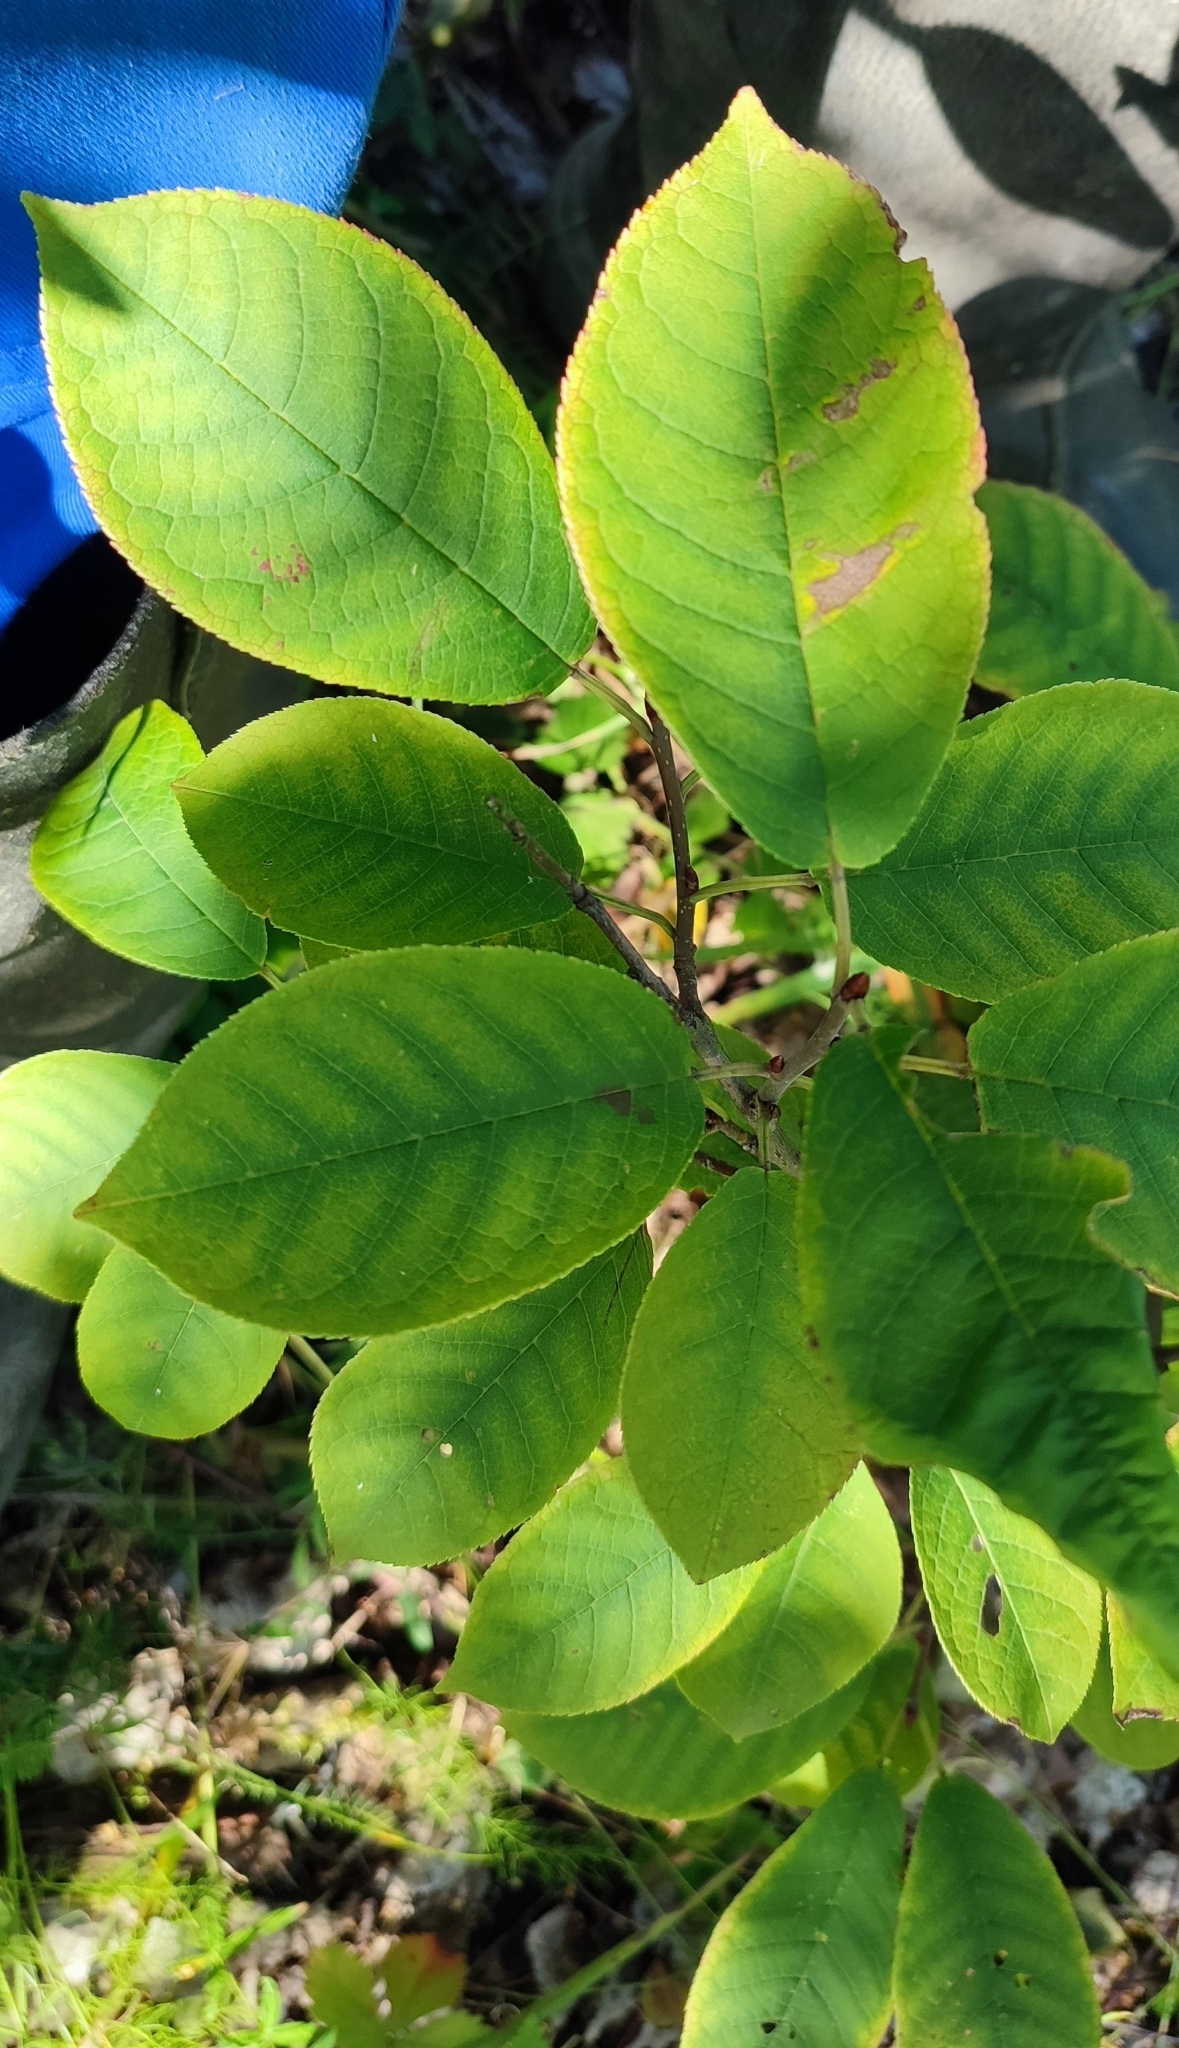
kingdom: Plantae
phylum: Tracheophyta
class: Magnoliopsida
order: Rosales
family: Rosaceae
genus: Prunus
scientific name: Prunus padus
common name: Bird cherry
